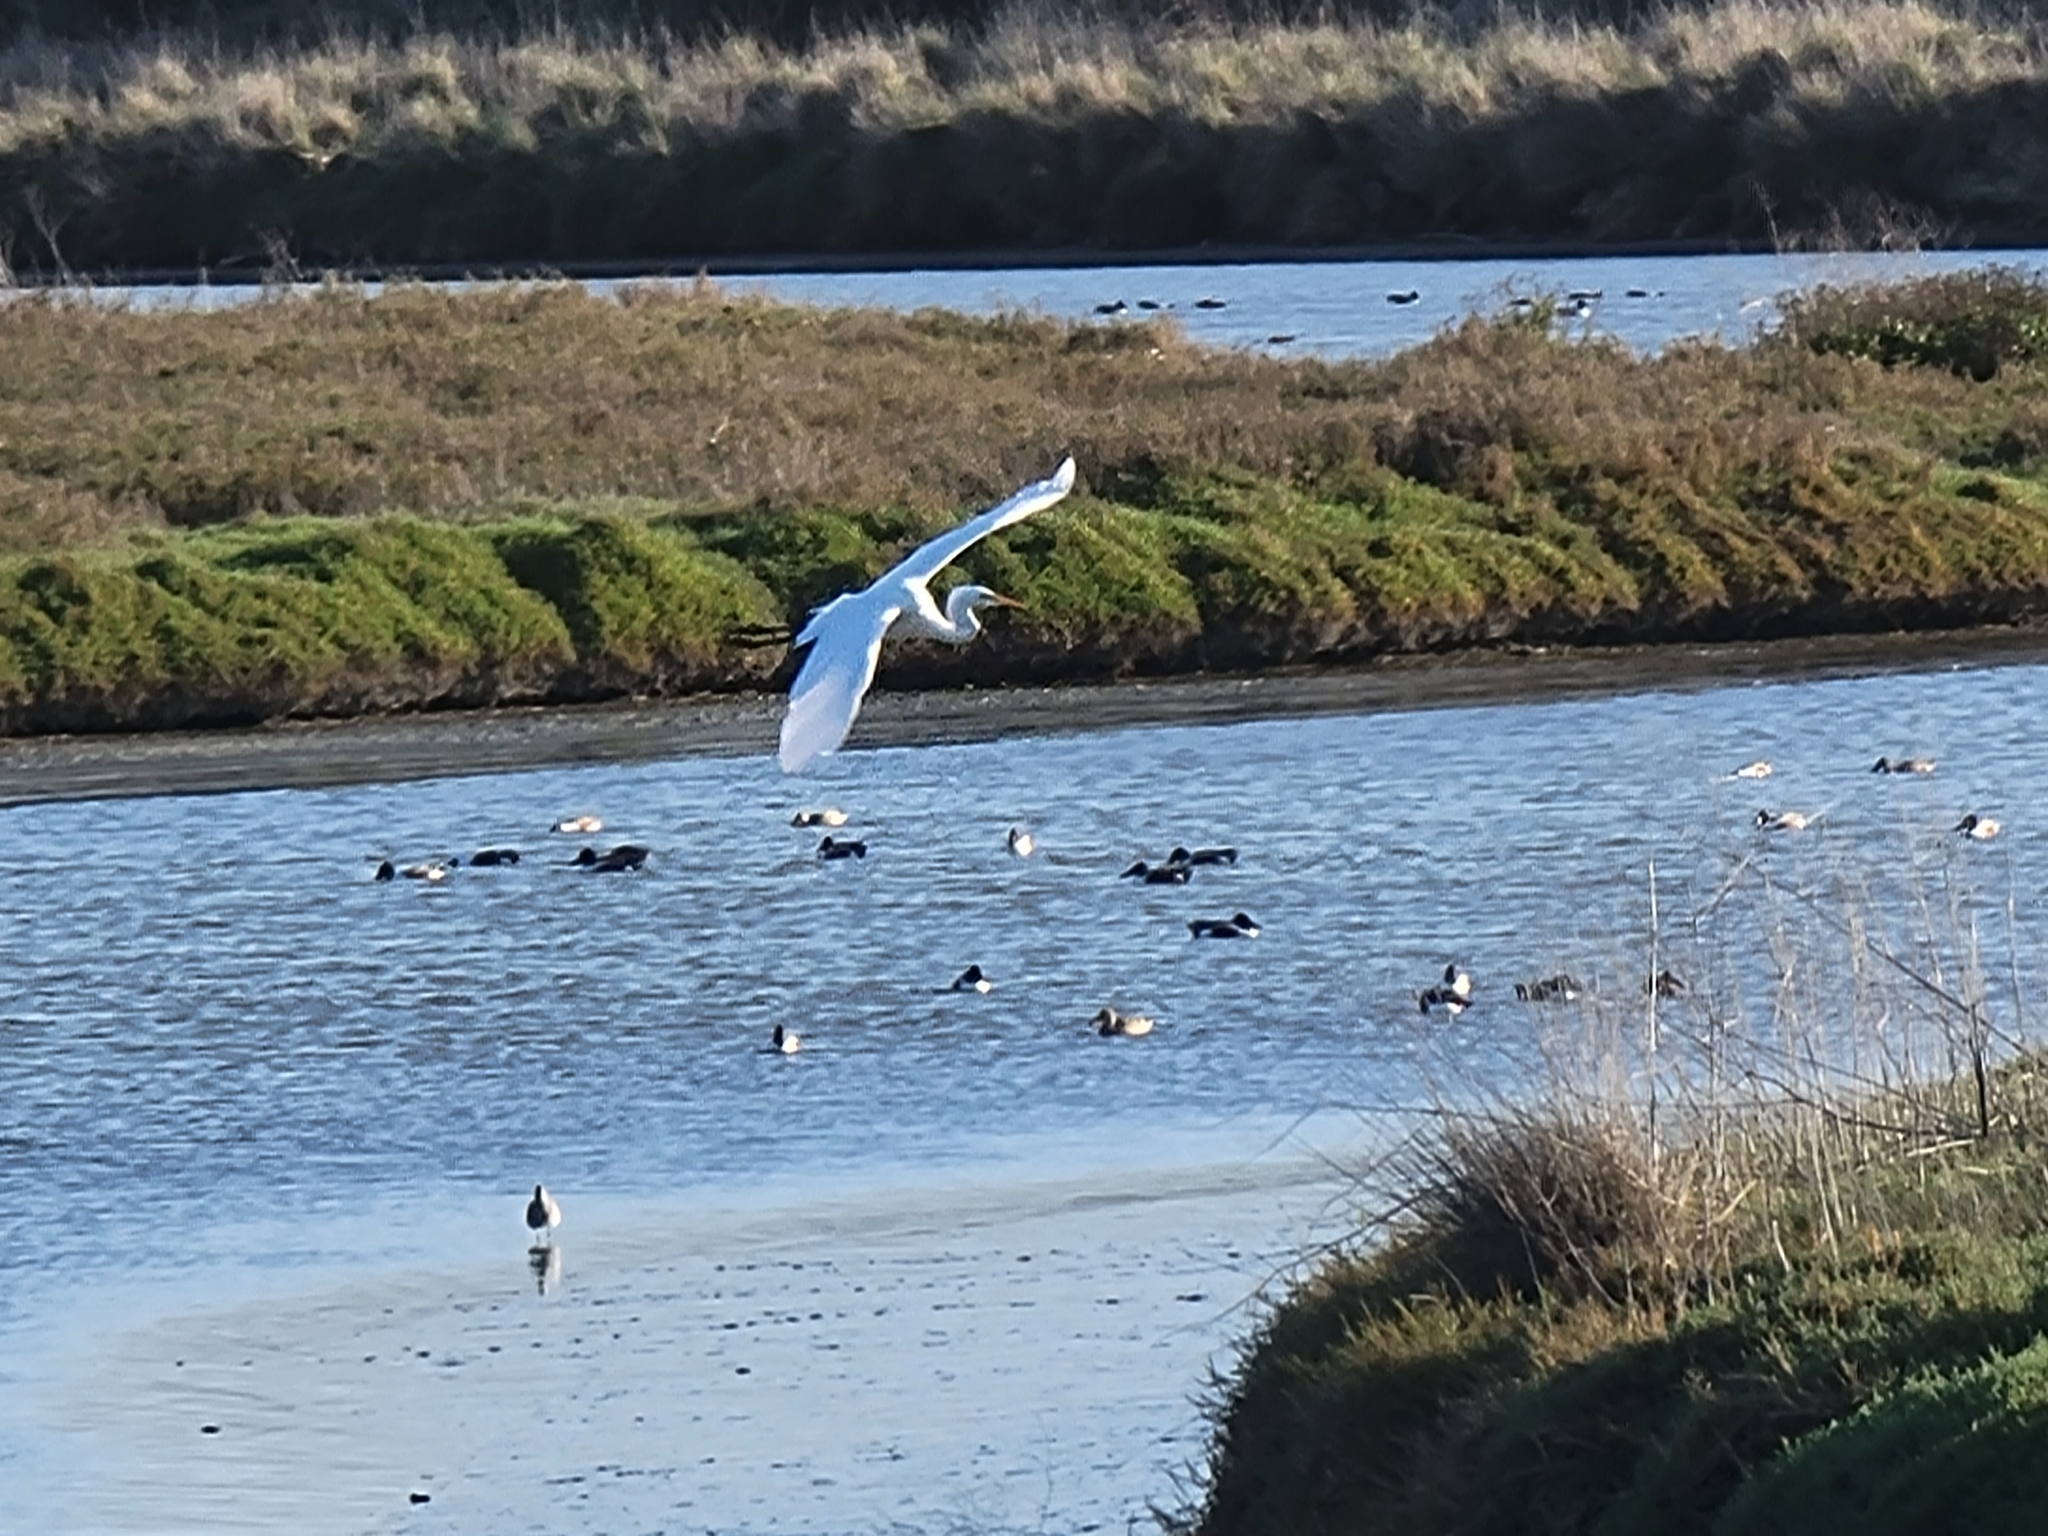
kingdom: Animalia
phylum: Chordata
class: Aves
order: Pelecaniformes
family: Ardeidae
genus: Ardea
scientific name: Ardea alba
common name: Great egret
